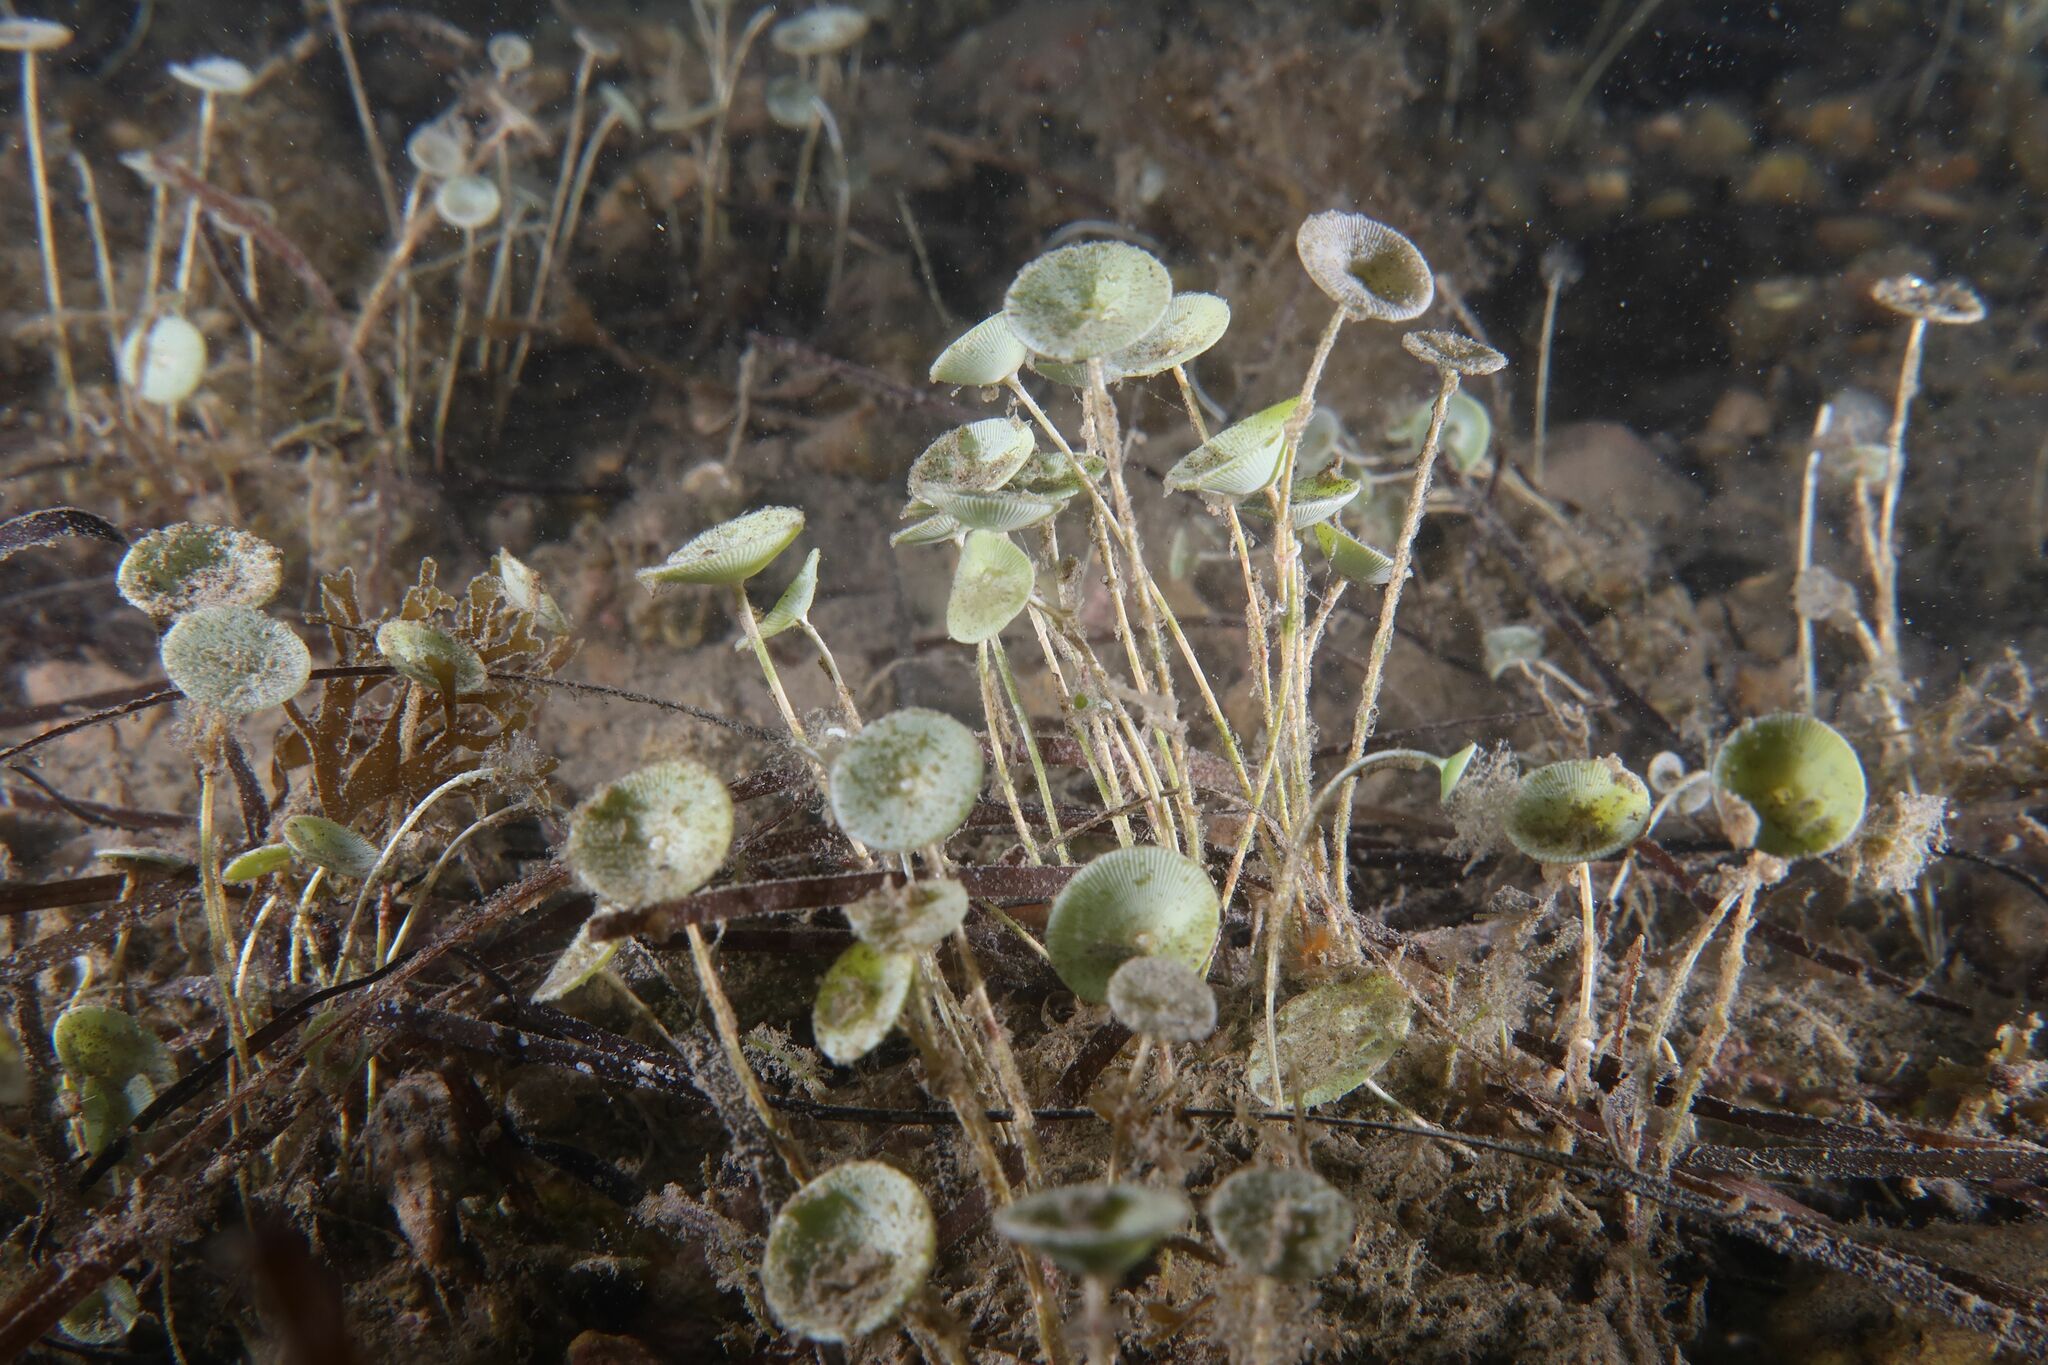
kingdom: Plantae
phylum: Chlorophyta
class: Ulvophyceae
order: Dasycladales
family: Polyphysaceae
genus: Acetabularia
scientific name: Acetabularia acetabulum
